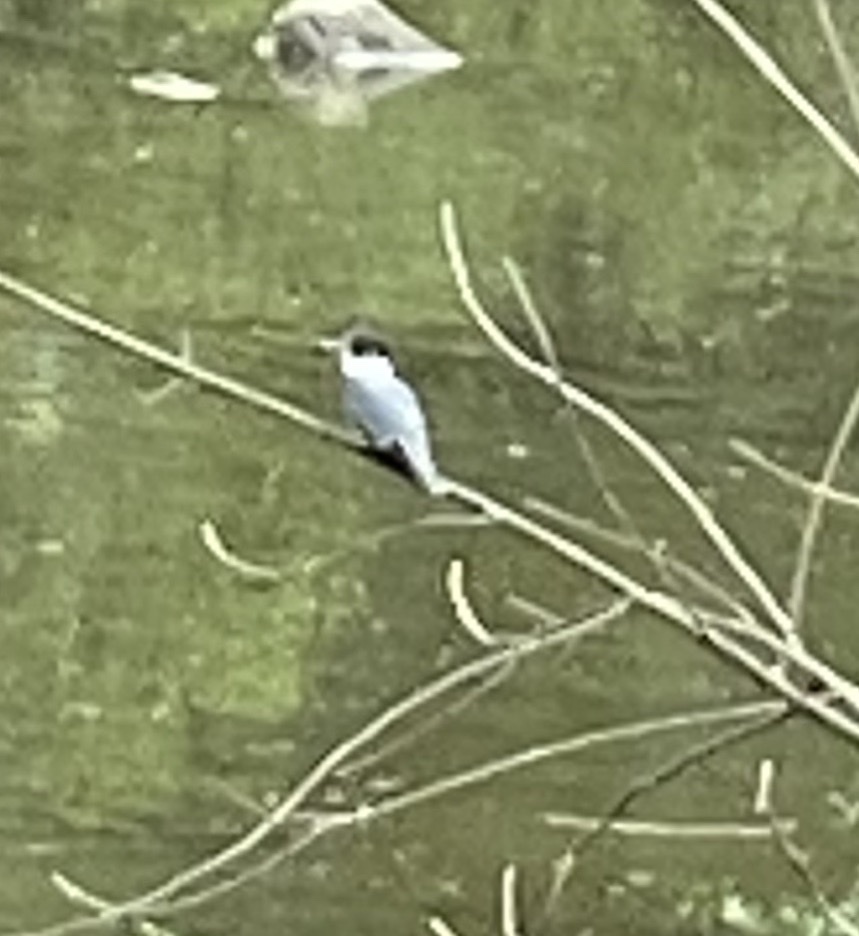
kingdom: Animalia
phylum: Chordata
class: Aves
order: Coraciiformes
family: Alcedinidae
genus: Megaceryle
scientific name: Megaceryle alcyon
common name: Belted kingfisher
